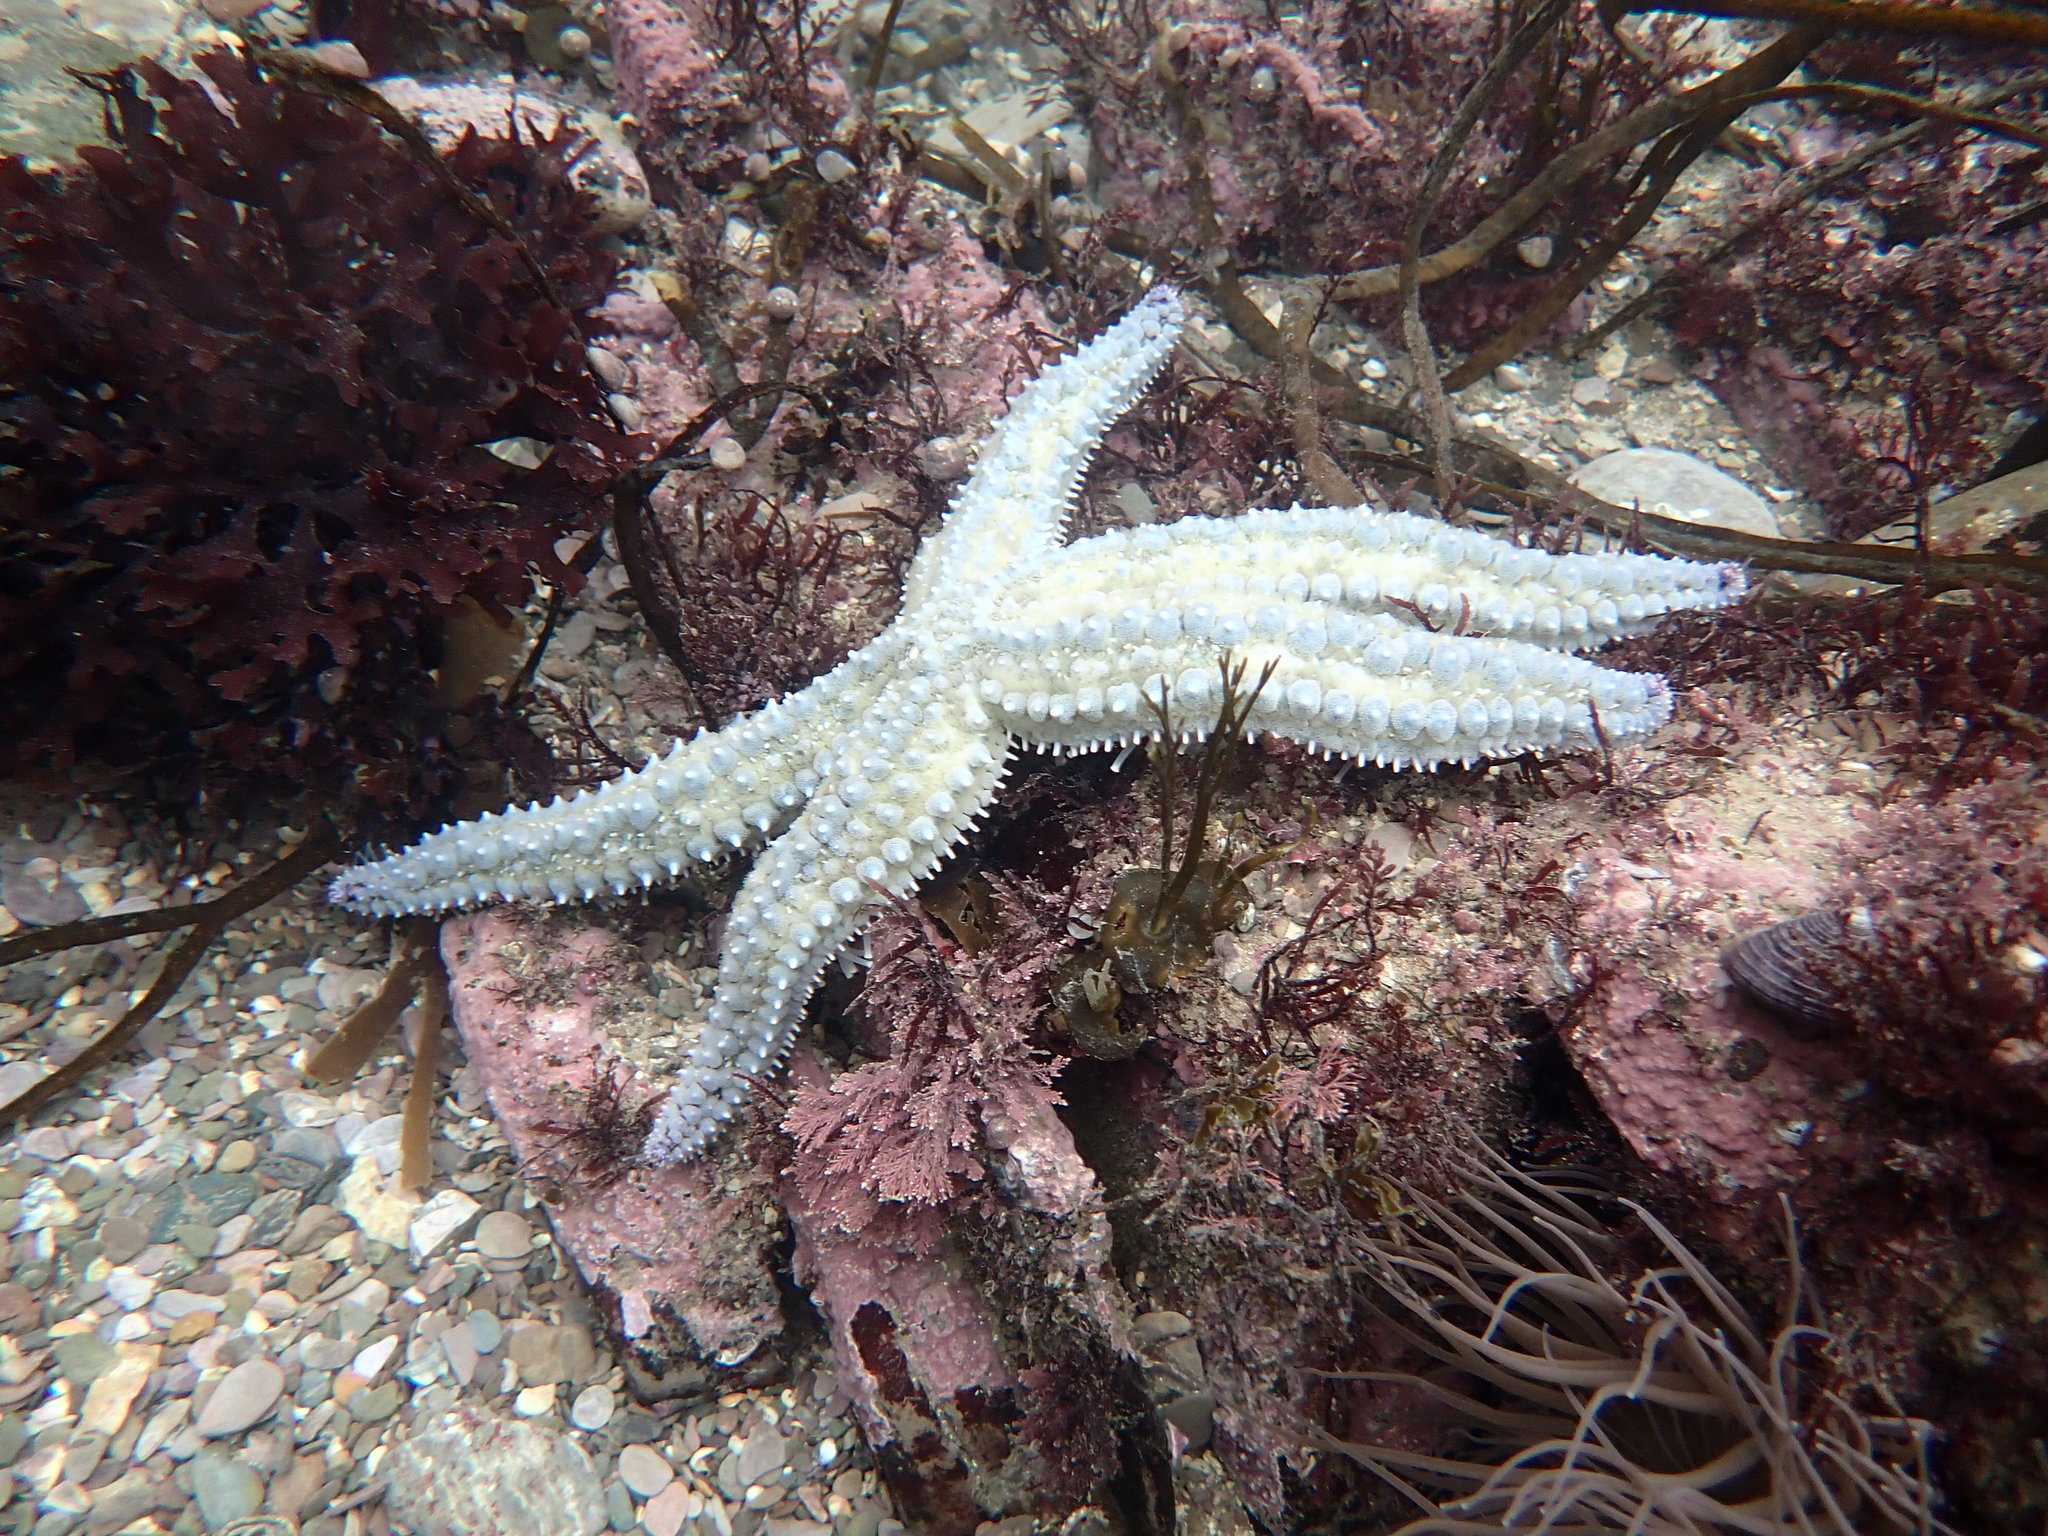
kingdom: Animalia
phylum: Echinodermata
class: Asteroidea
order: Forcipulatida
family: Asteriidae
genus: Marthasterias
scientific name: Marthasterias glacialis
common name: Spiny starfish
